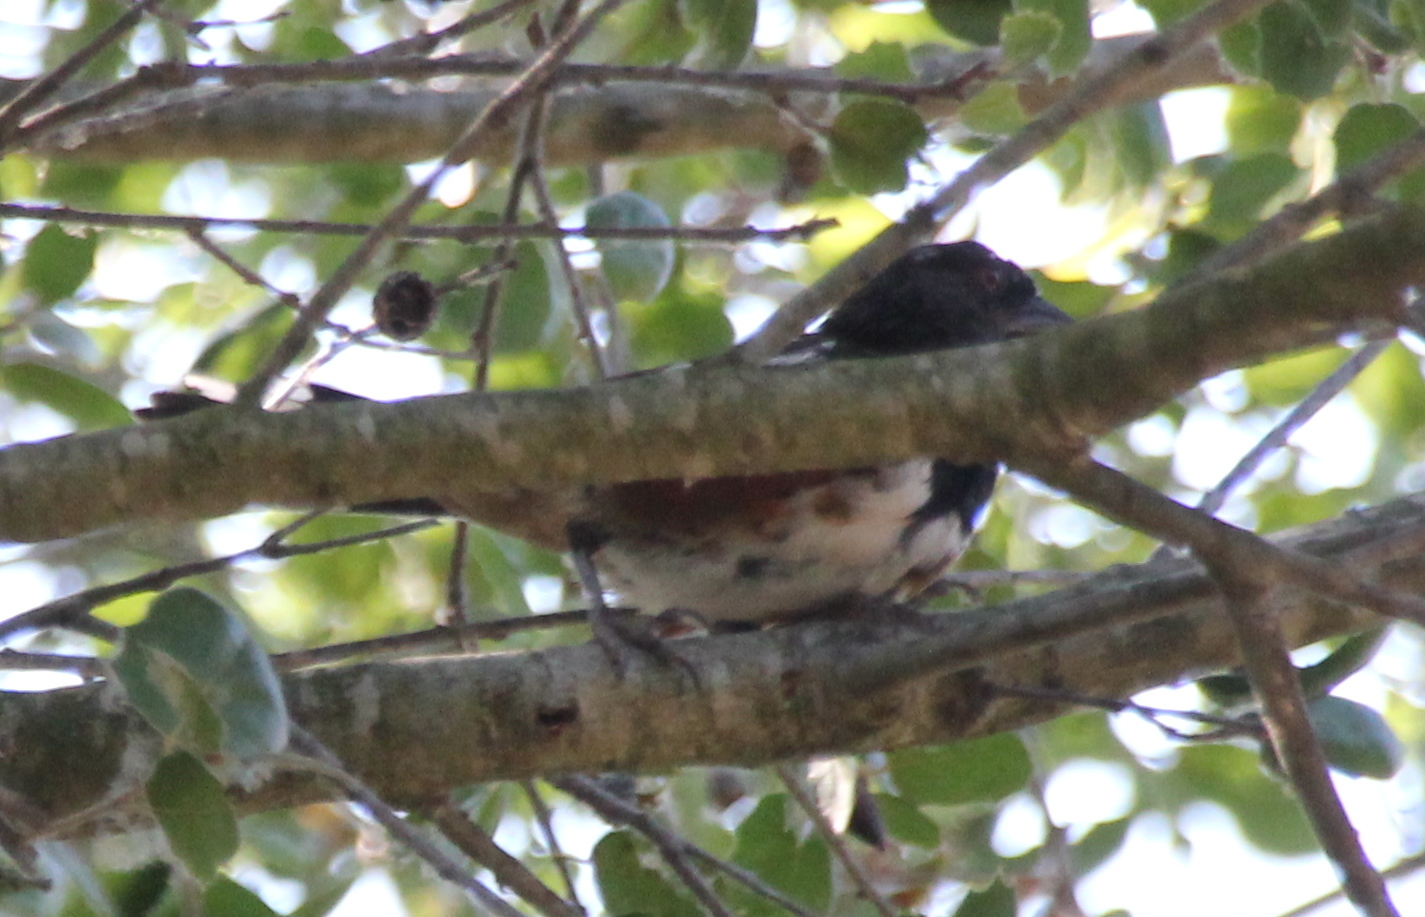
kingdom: Animalia
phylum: Chordata
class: Aves
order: Passeriformes
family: Passerellidae
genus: Pipilo
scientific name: Pipilo maculatus
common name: Spotted towhee
